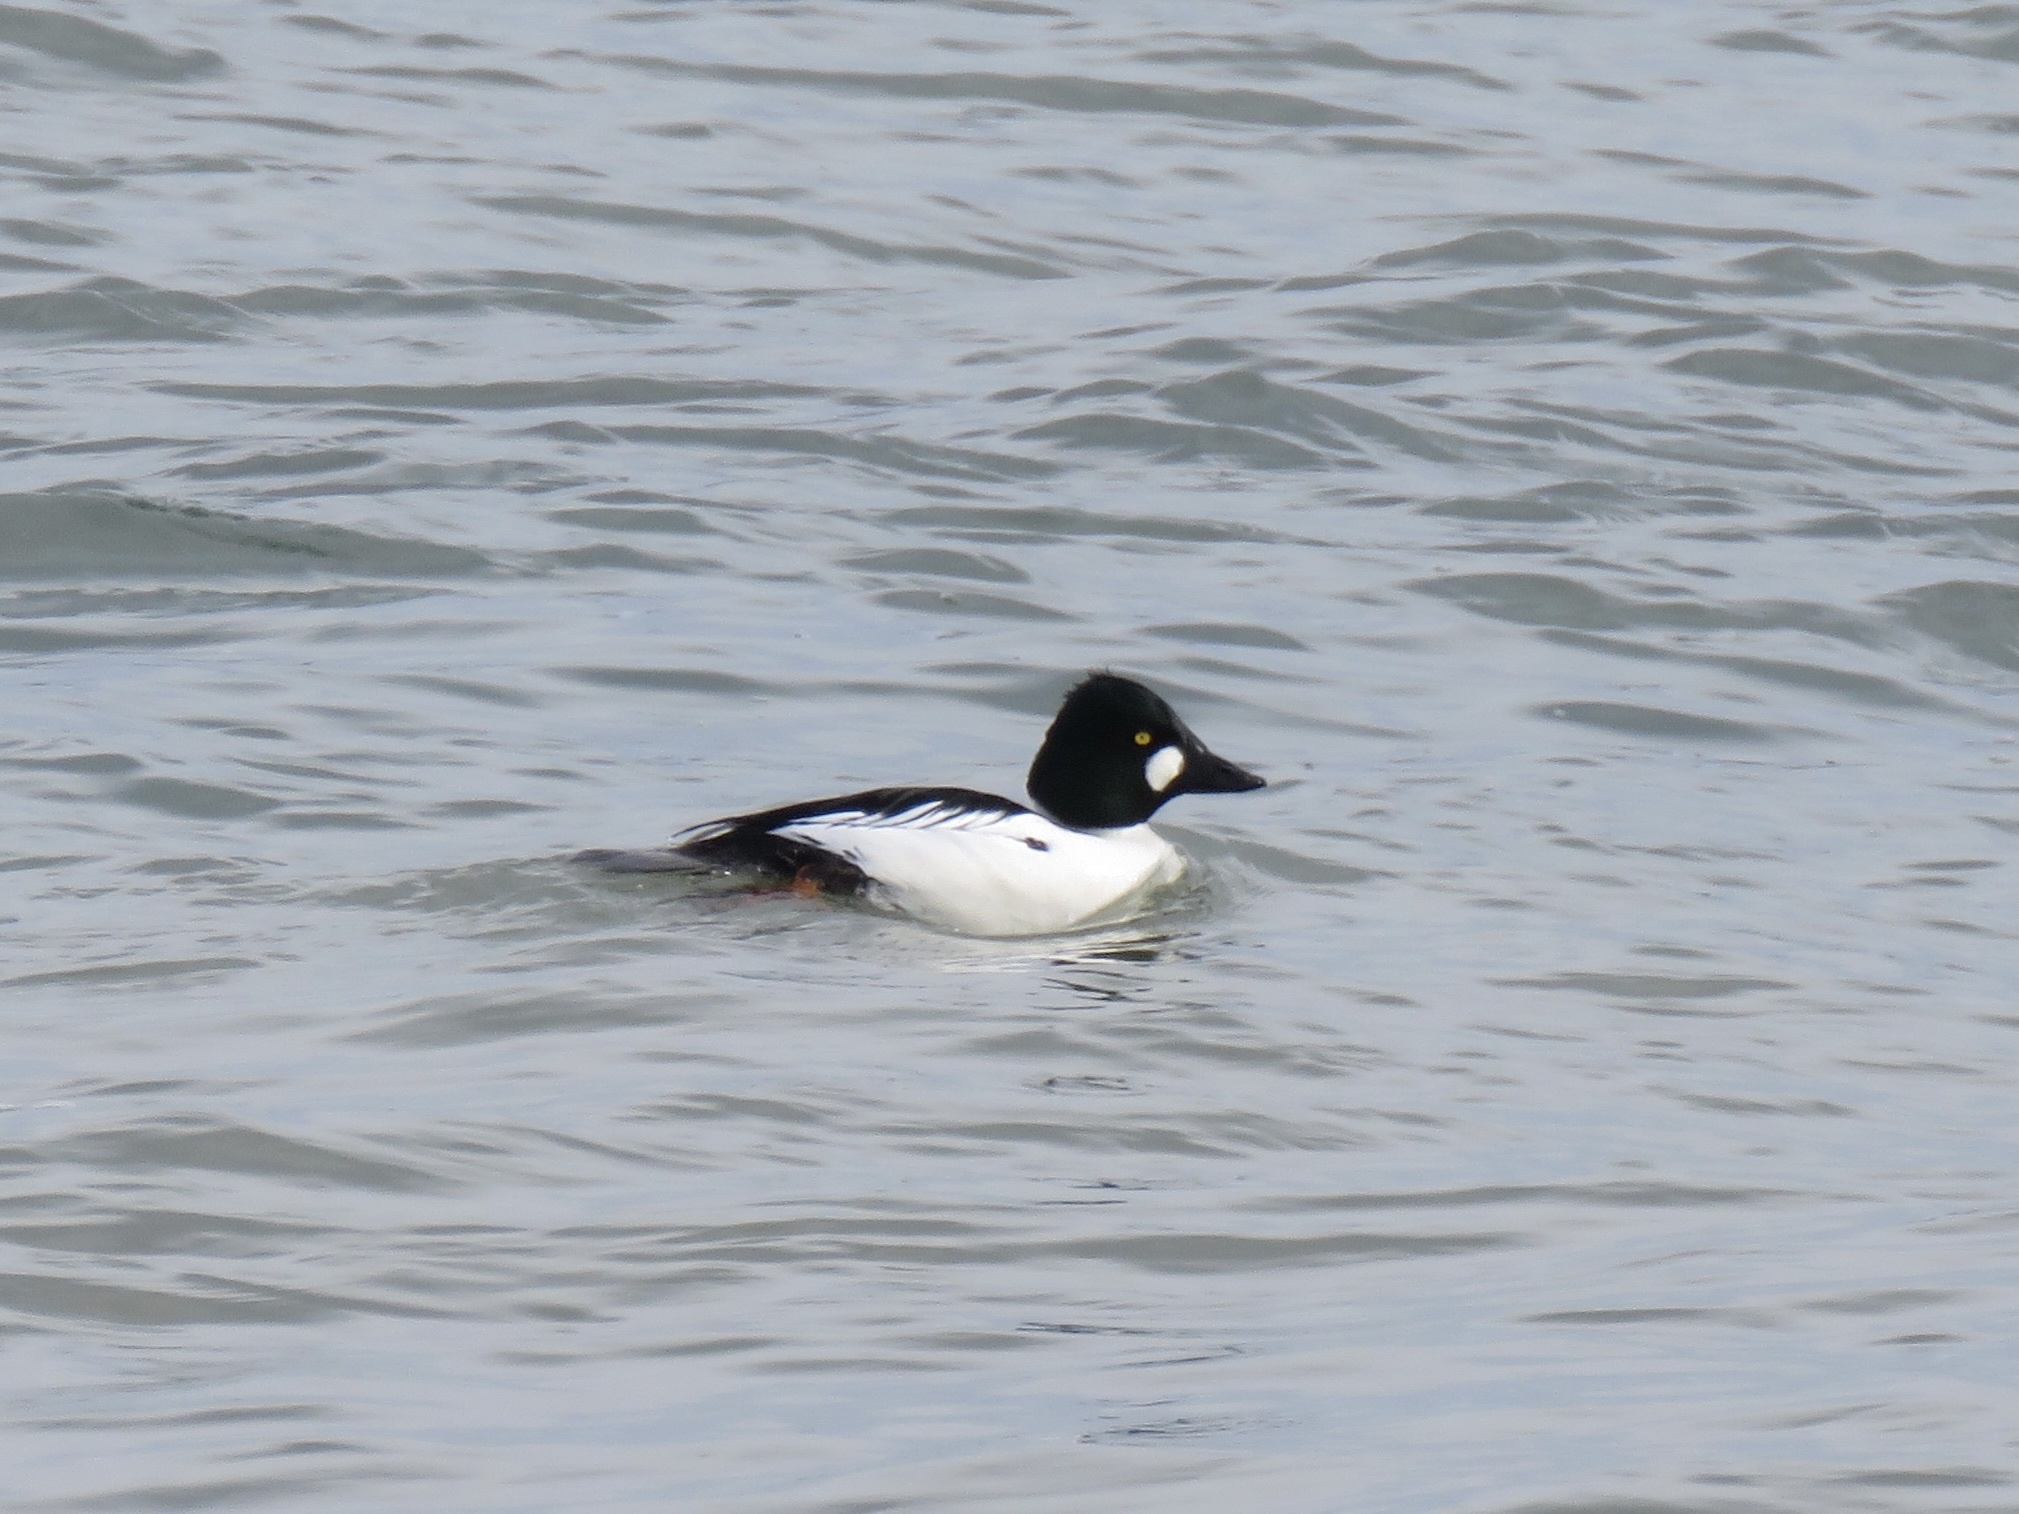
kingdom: Animalia
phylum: Chordata
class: Aves
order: Anseriformes
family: Anatidae
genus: Bucephala
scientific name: Bucephala clangula
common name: Common goldeneye
